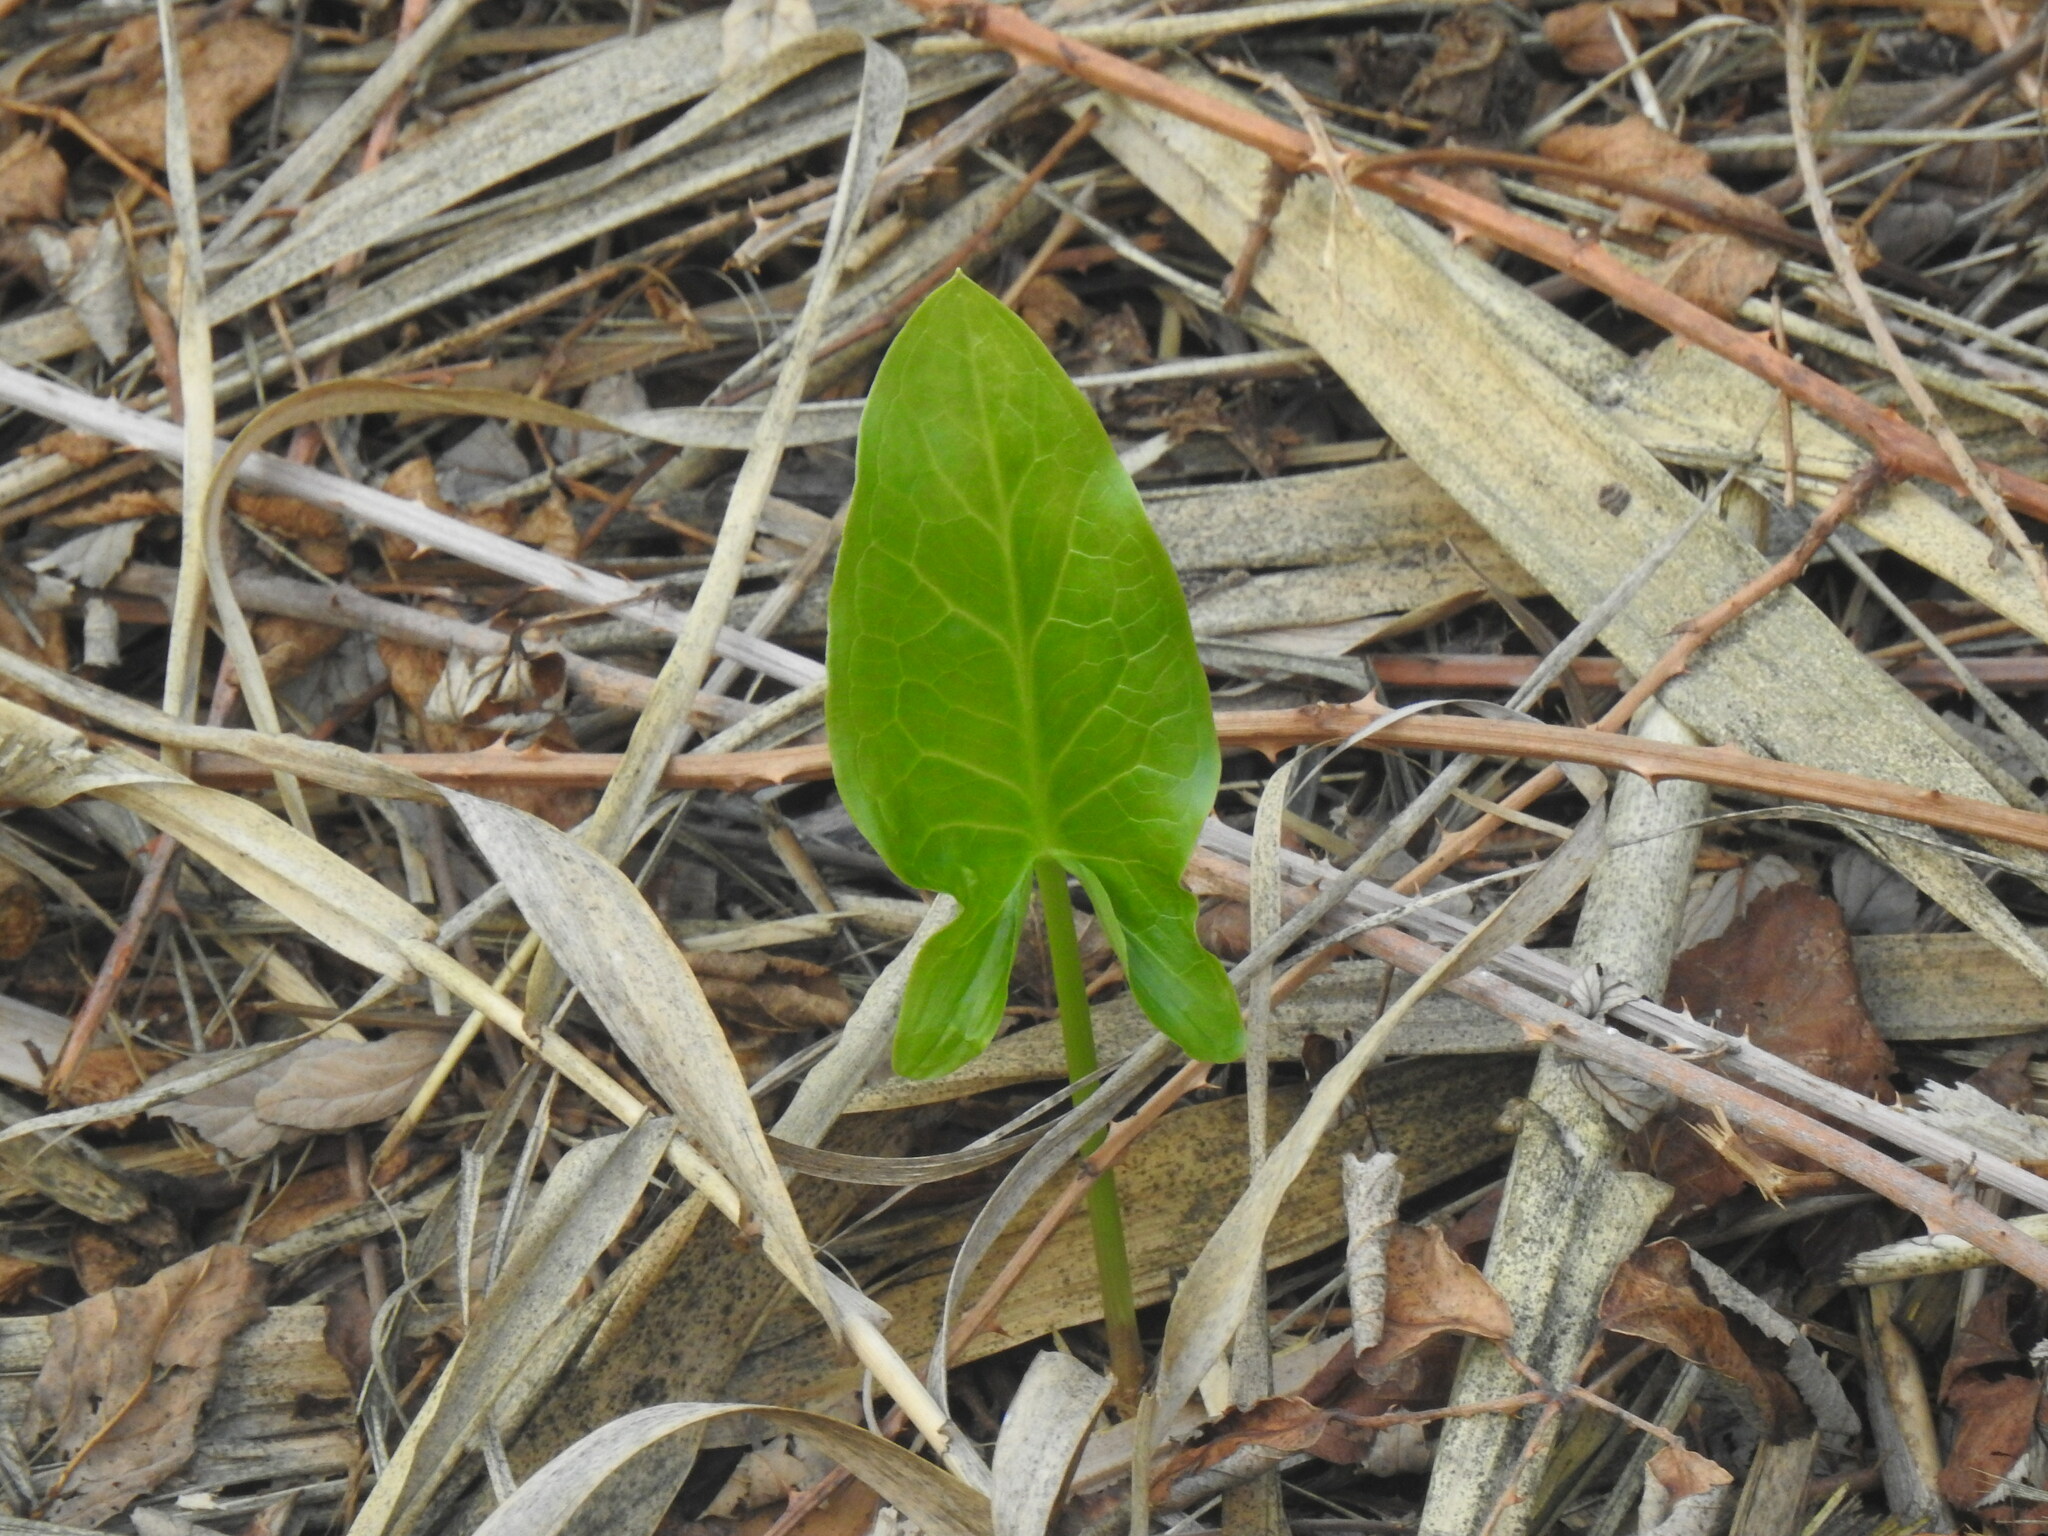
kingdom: Plantae
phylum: Tracheophyta
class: Liliopsida
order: Alismatales
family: Araceae
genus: Arum
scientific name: Arum italicum
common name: Italian lords-and-ladies
